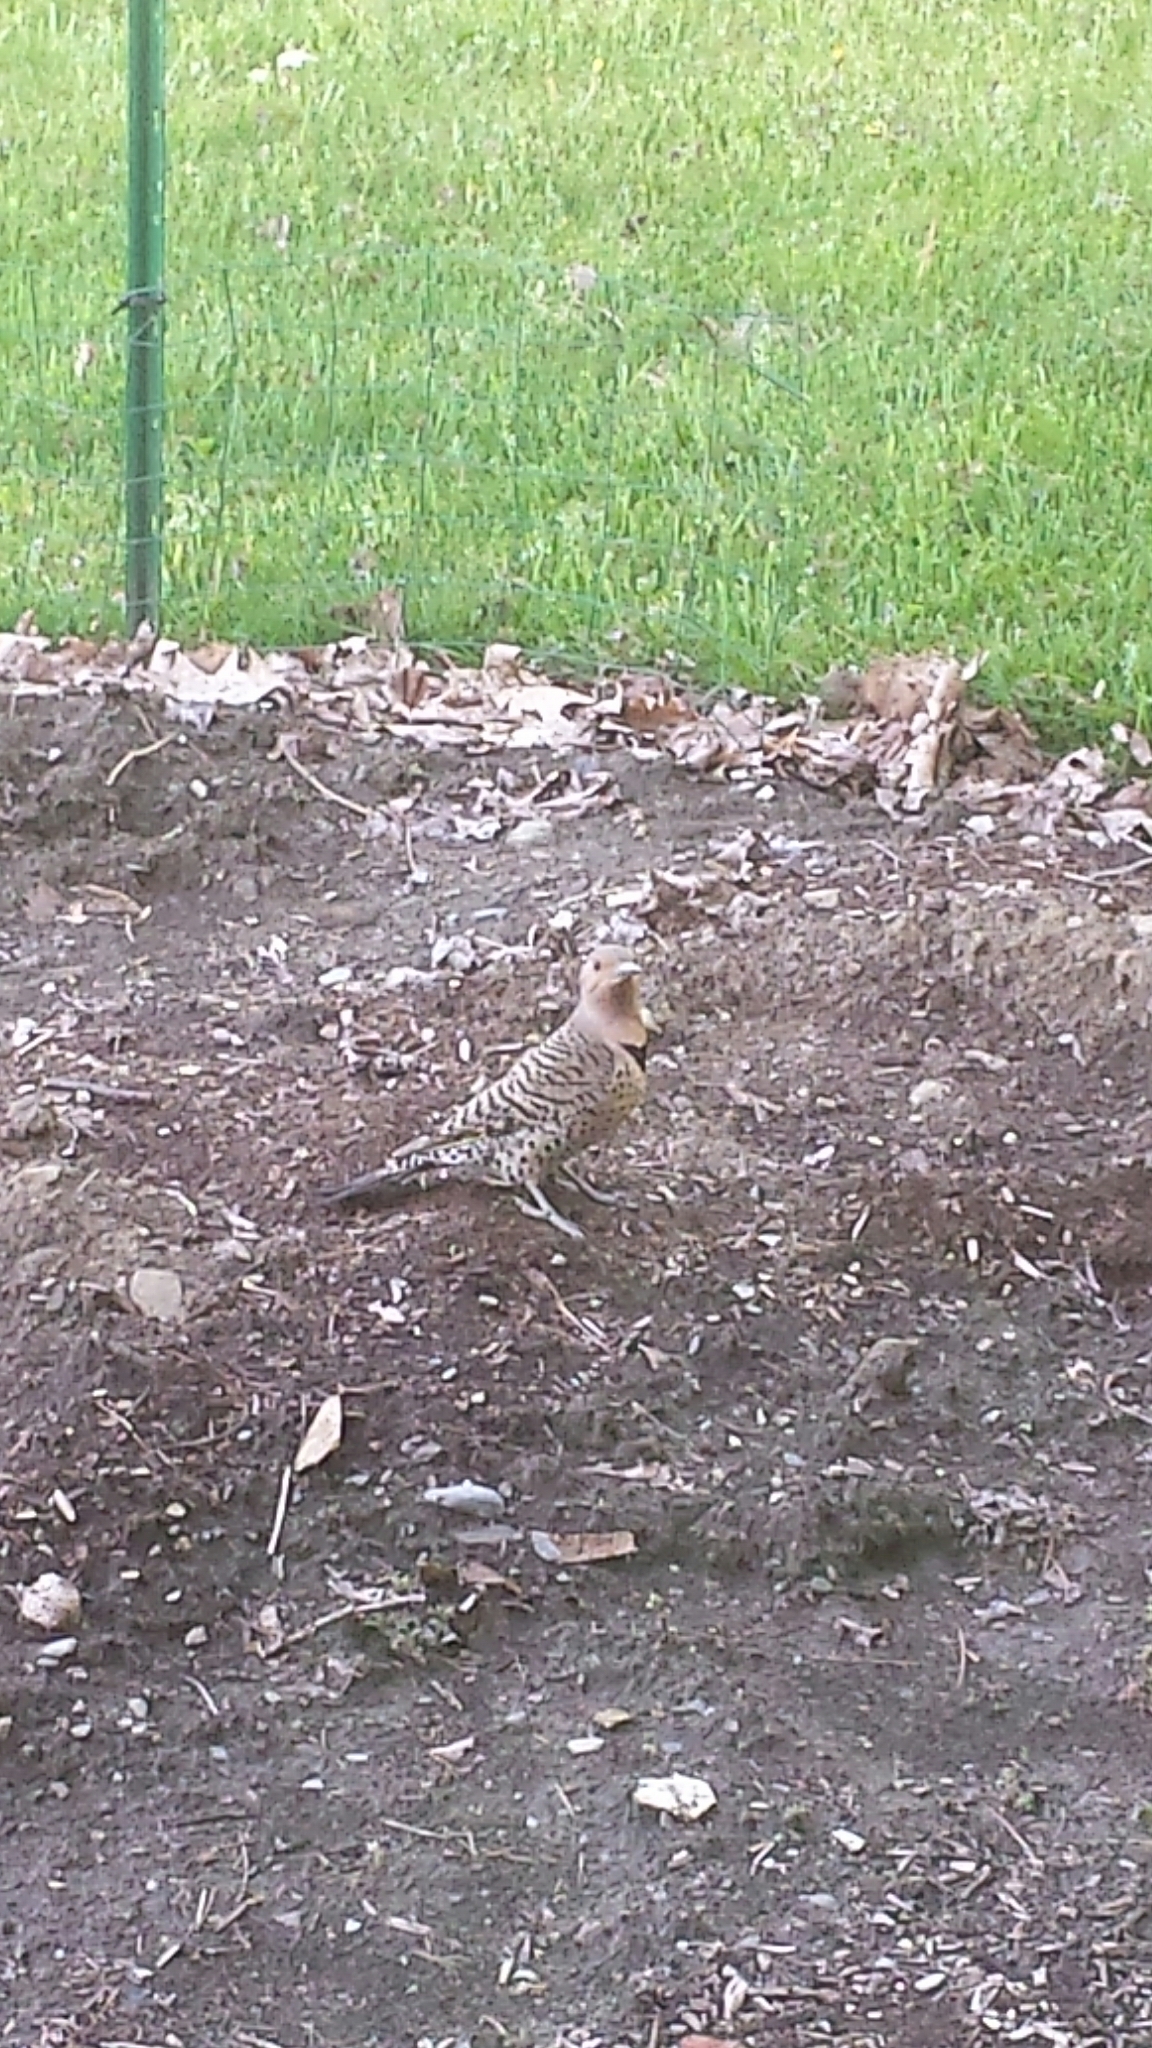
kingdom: Animalia
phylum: Chordata
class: Aves
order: Piciformes
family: Picidae
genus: Colaptes
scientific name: Colaptes auratus
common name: Northern flicker
